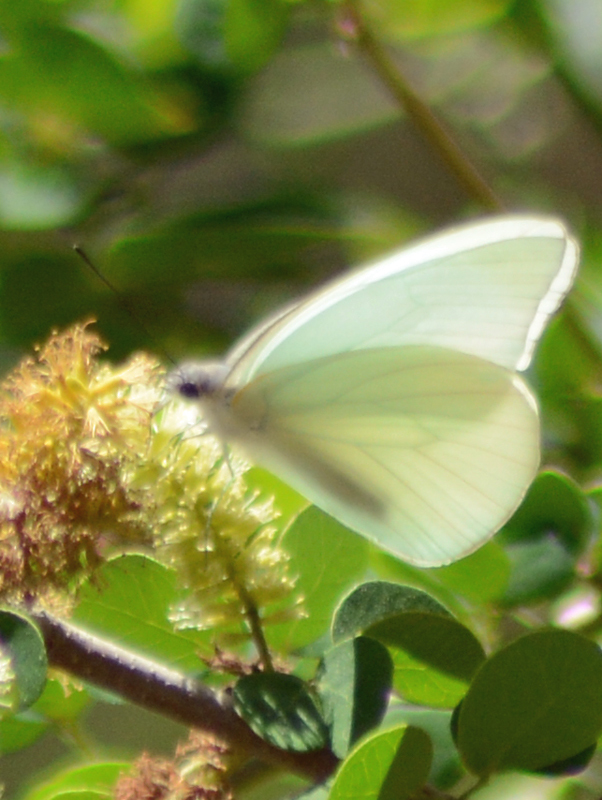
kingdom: Animalia
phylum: Arthropoda
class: Insecta
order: Lepidoptera
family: Pieridae
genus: Glutophrissa
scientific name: Glutophrissa drusilla
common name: Florida white
